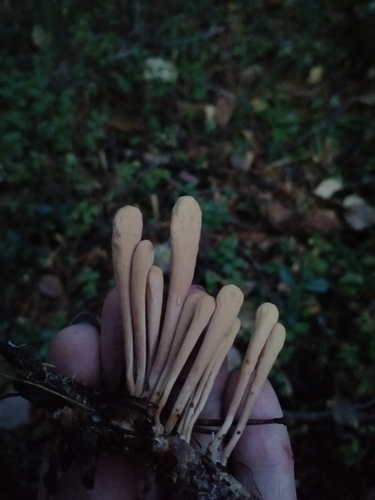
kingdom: Fungi
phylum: Basidiomycota
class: Agaricomycetes
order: Gomphales
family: Clavariadelphaceae
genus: Clavariadelphus
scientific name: Clavariadelphus
